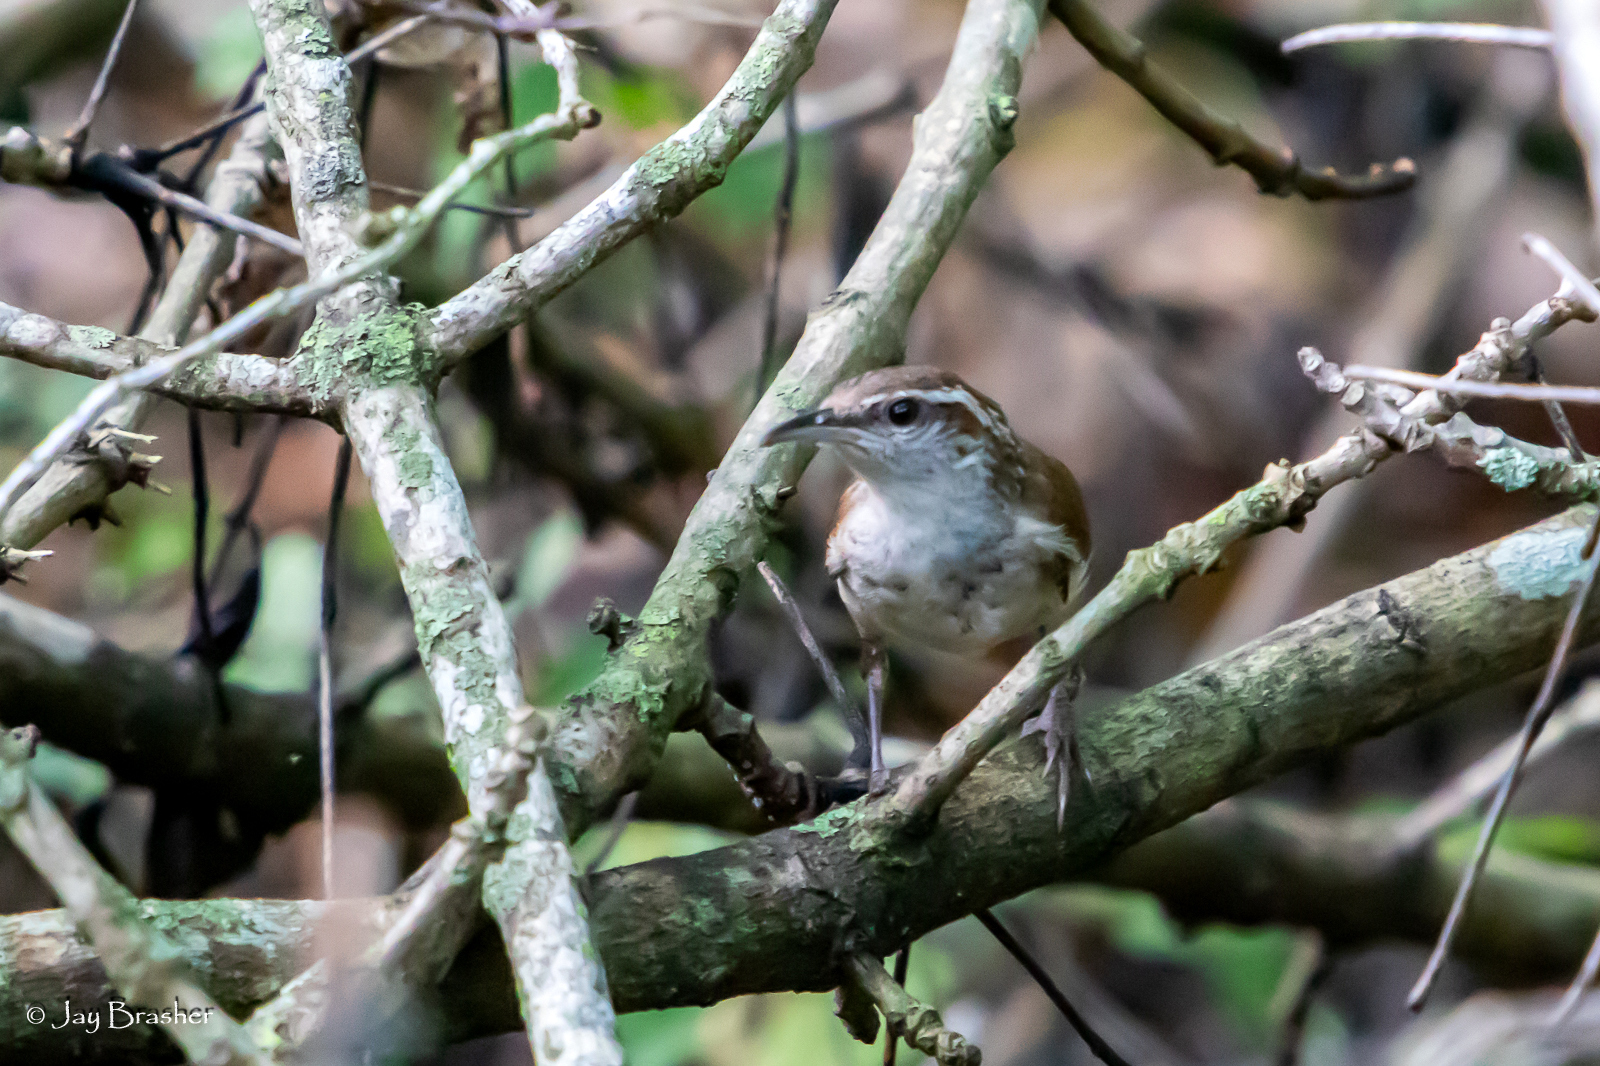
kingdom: Animalia
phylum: Chordata
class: Aves
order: Passeriformes
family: Troglodytidae
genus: Thryothorus
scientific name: Thryothorus ludovicianus
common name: Carolina wren
